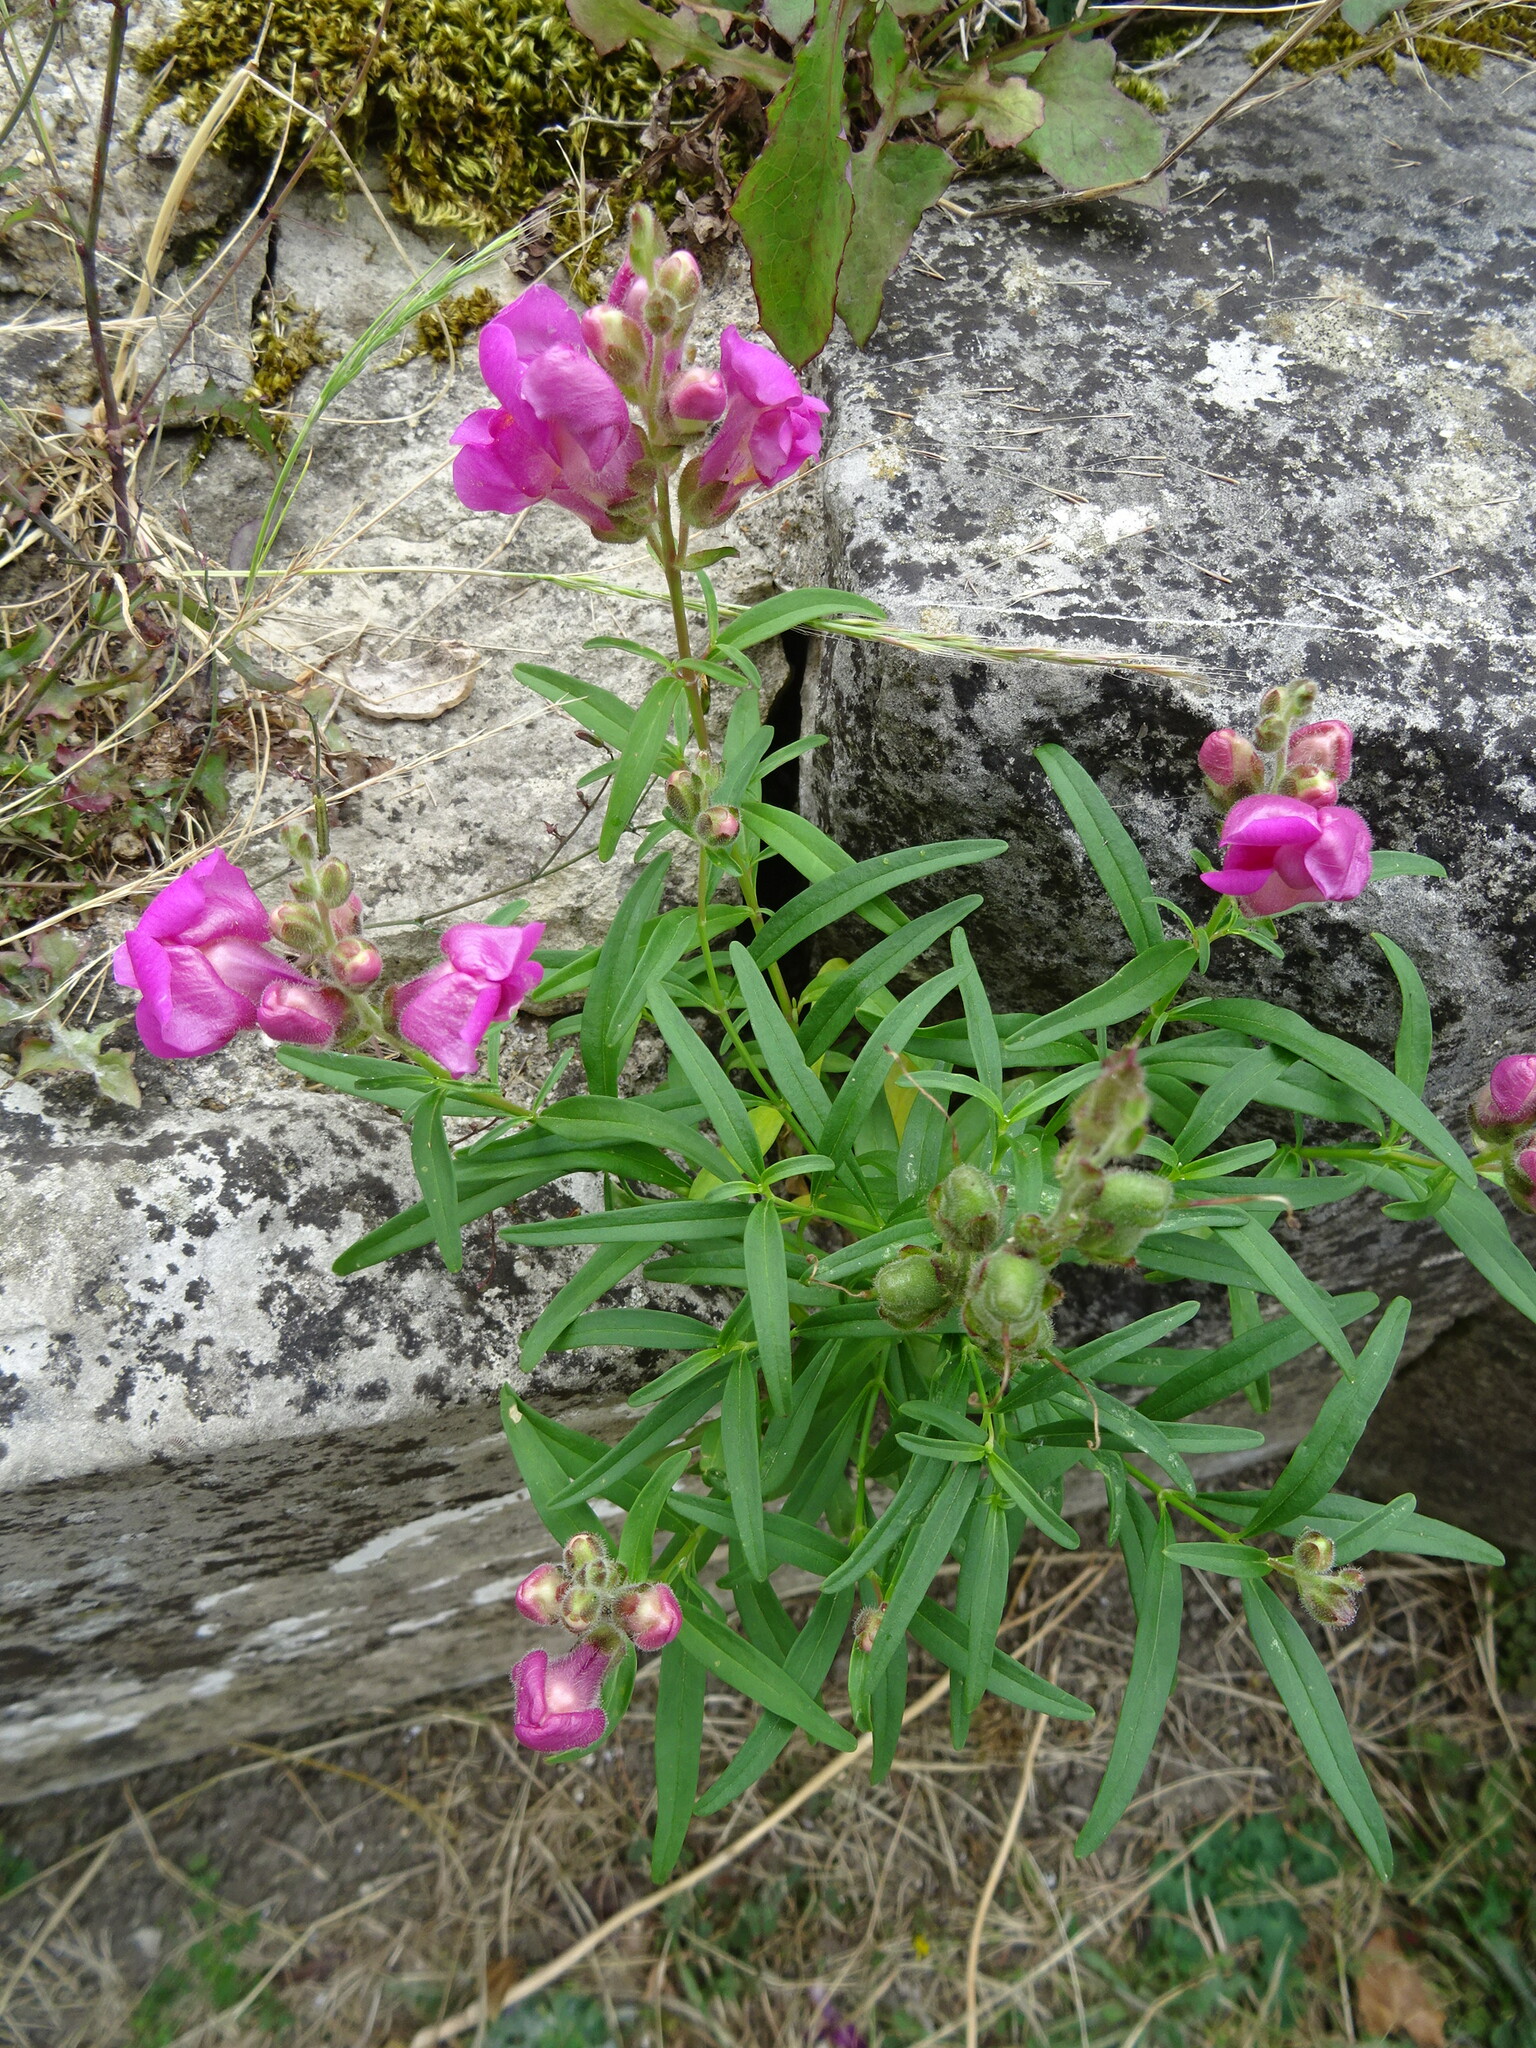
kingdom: Plantae
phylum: Tracheophyta
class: Magnoliopsida
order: Lamiales
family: Plantaginaceae
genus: Antirrhinum
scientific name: Antirrhinum majus
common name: Snapdragon
